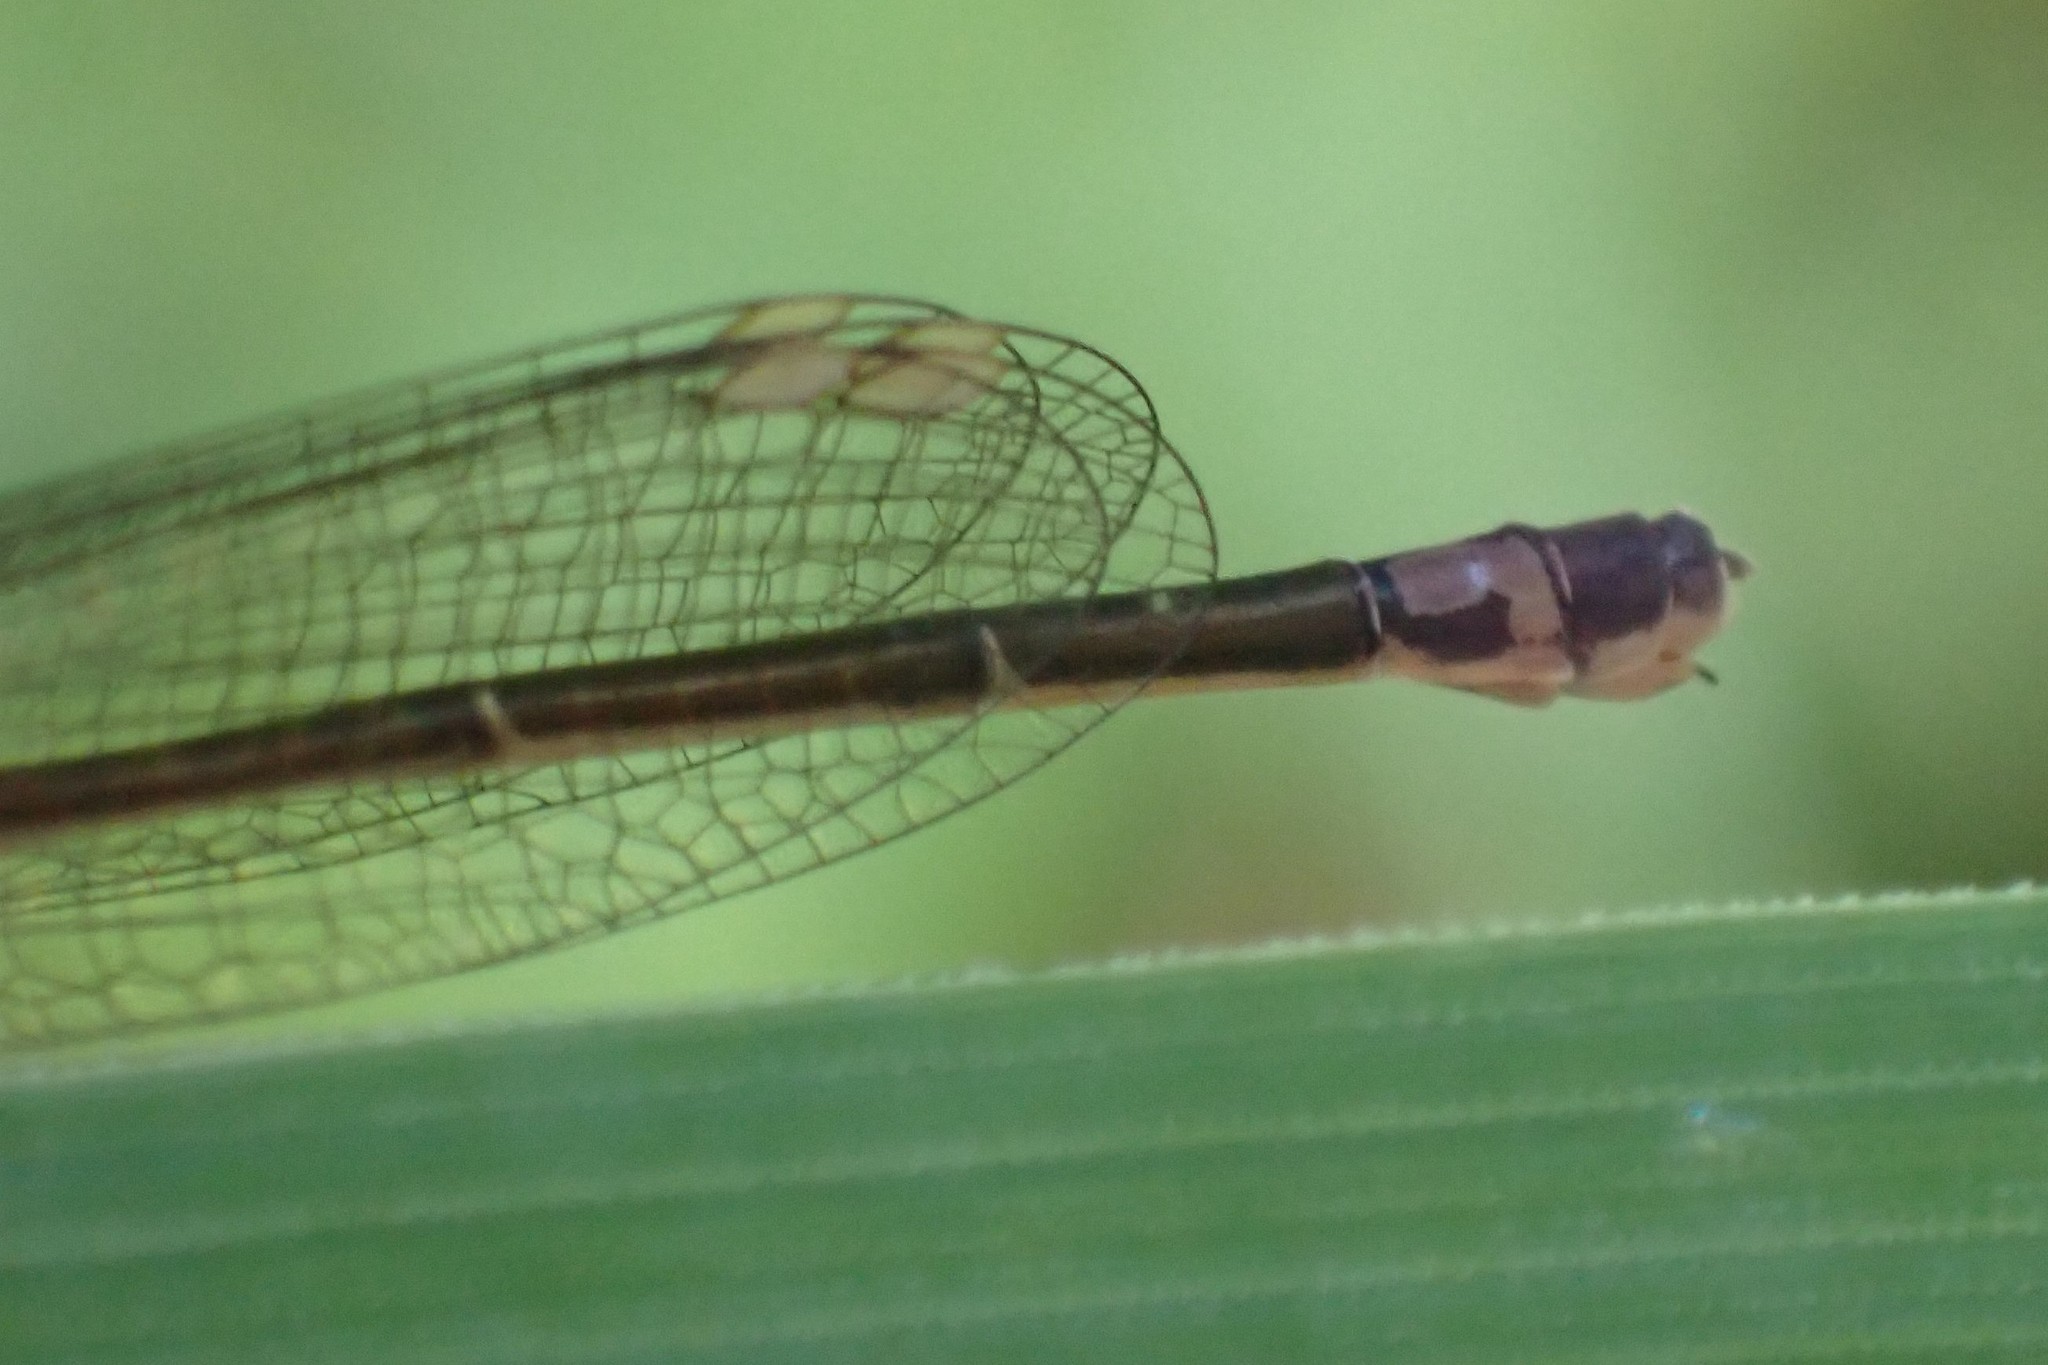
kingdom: Animalia
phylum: Arthropoda
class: Insecta
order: Odonata
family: Coenagrionidae
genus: Ischnura
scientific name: Ischnura cervula
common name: Pacific forktail
